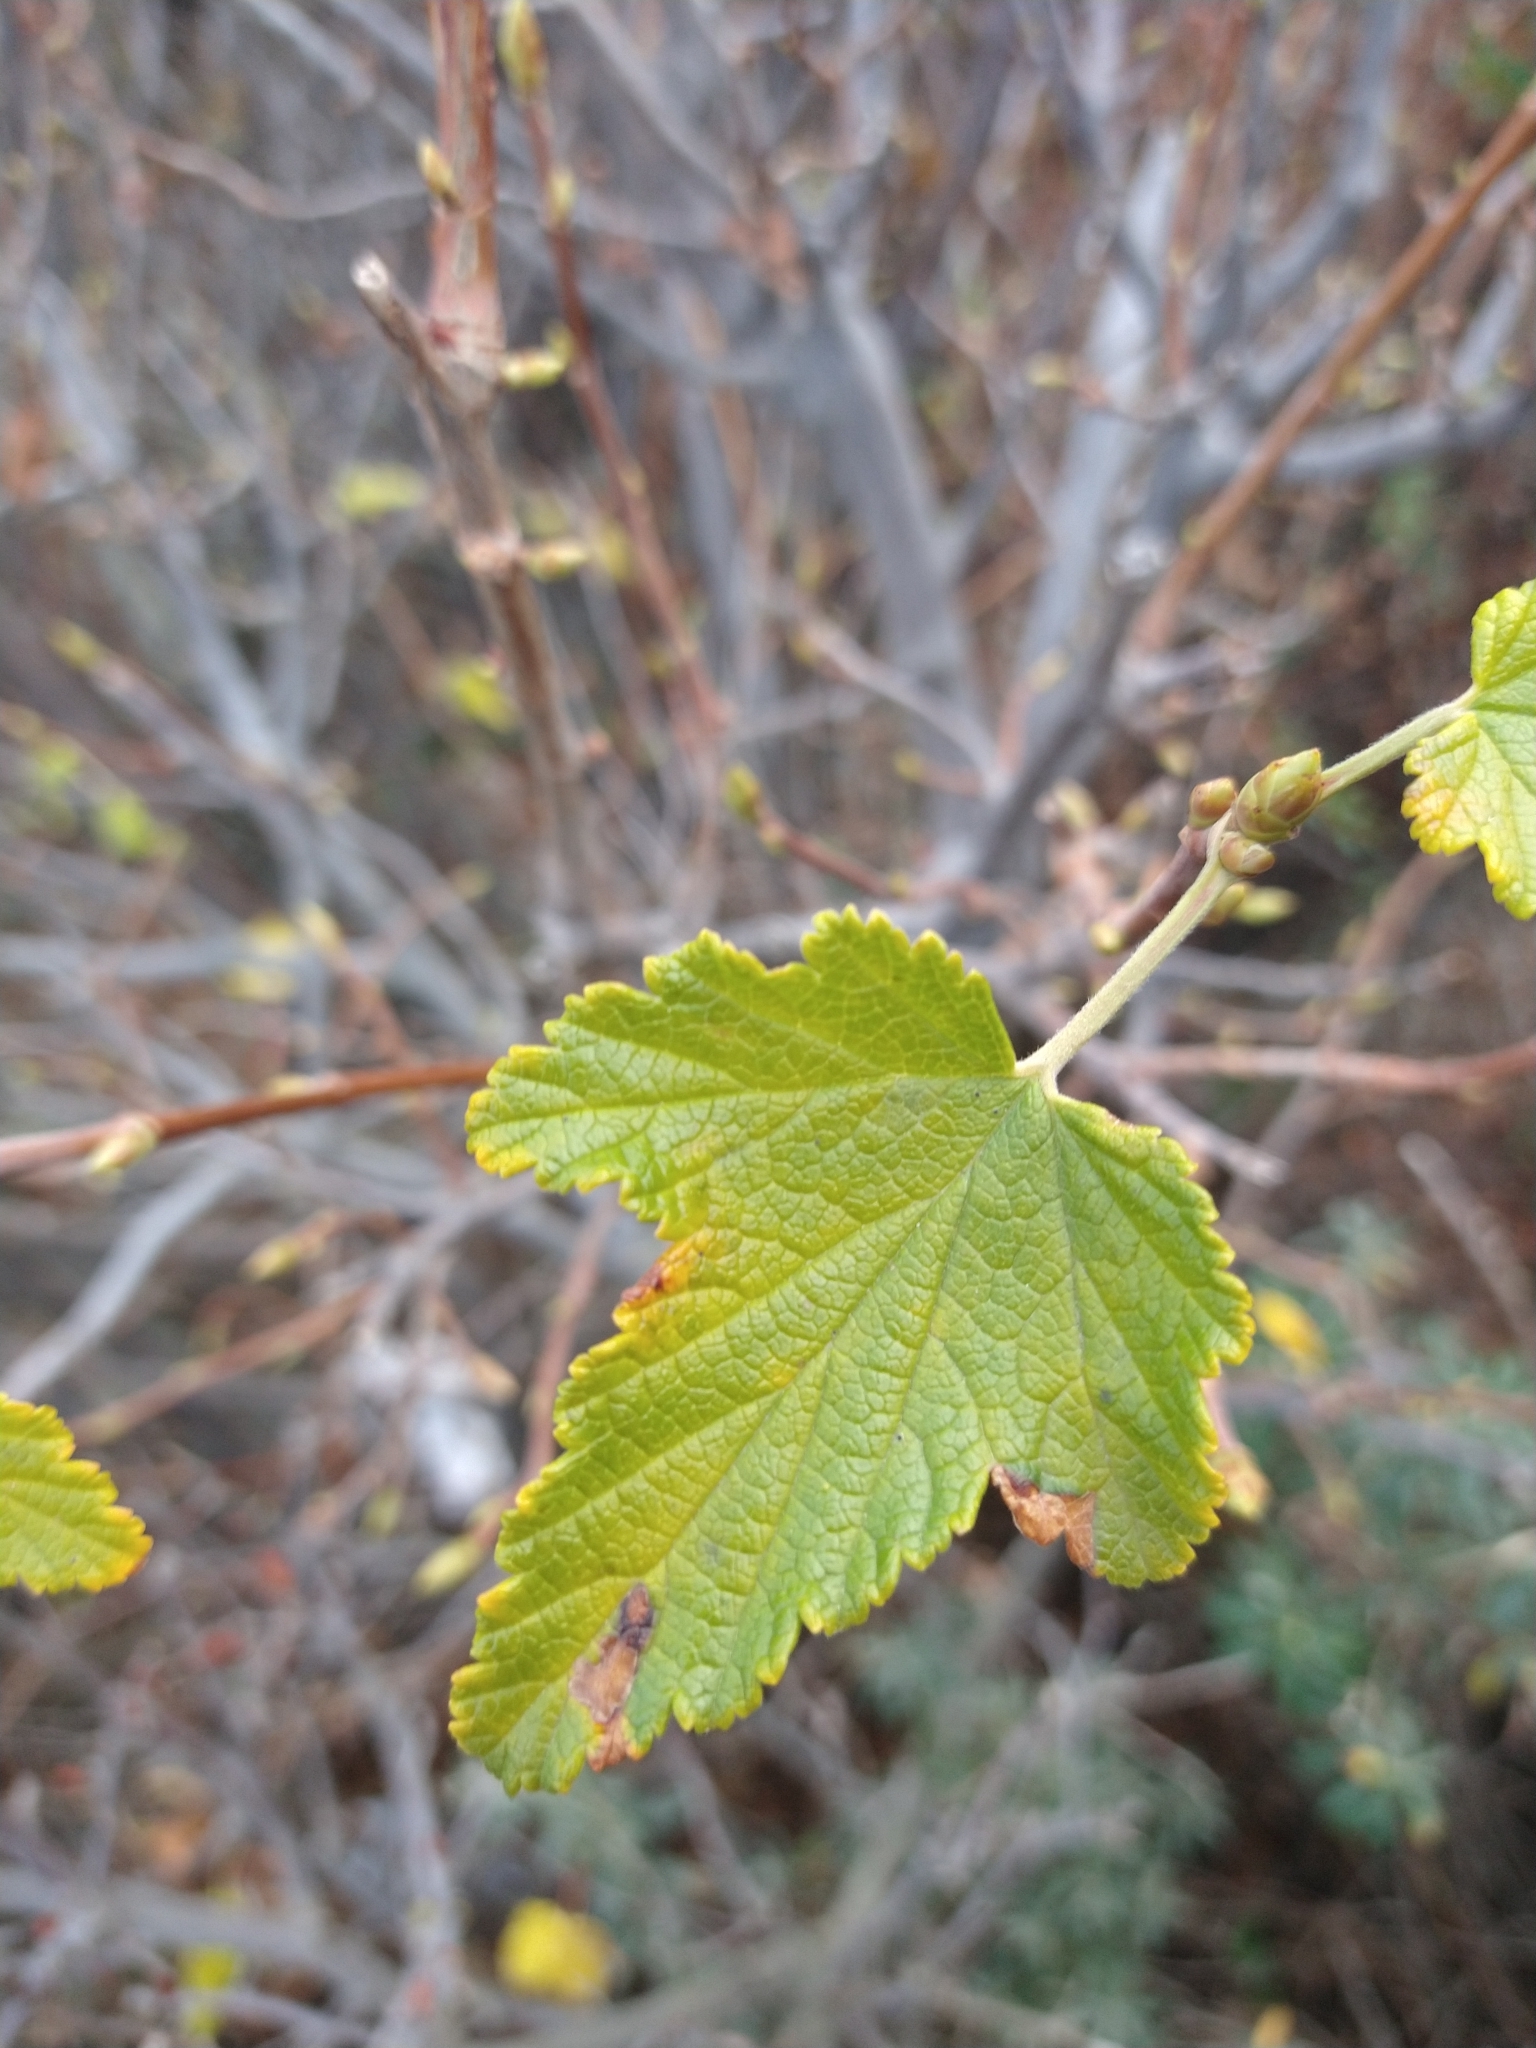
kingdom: Plantae
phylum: Tracheophyta
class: Magnoliopsida
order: Saxifragales
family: Grossulariaceae
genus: Ribes
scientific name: Ribes magellanicum
